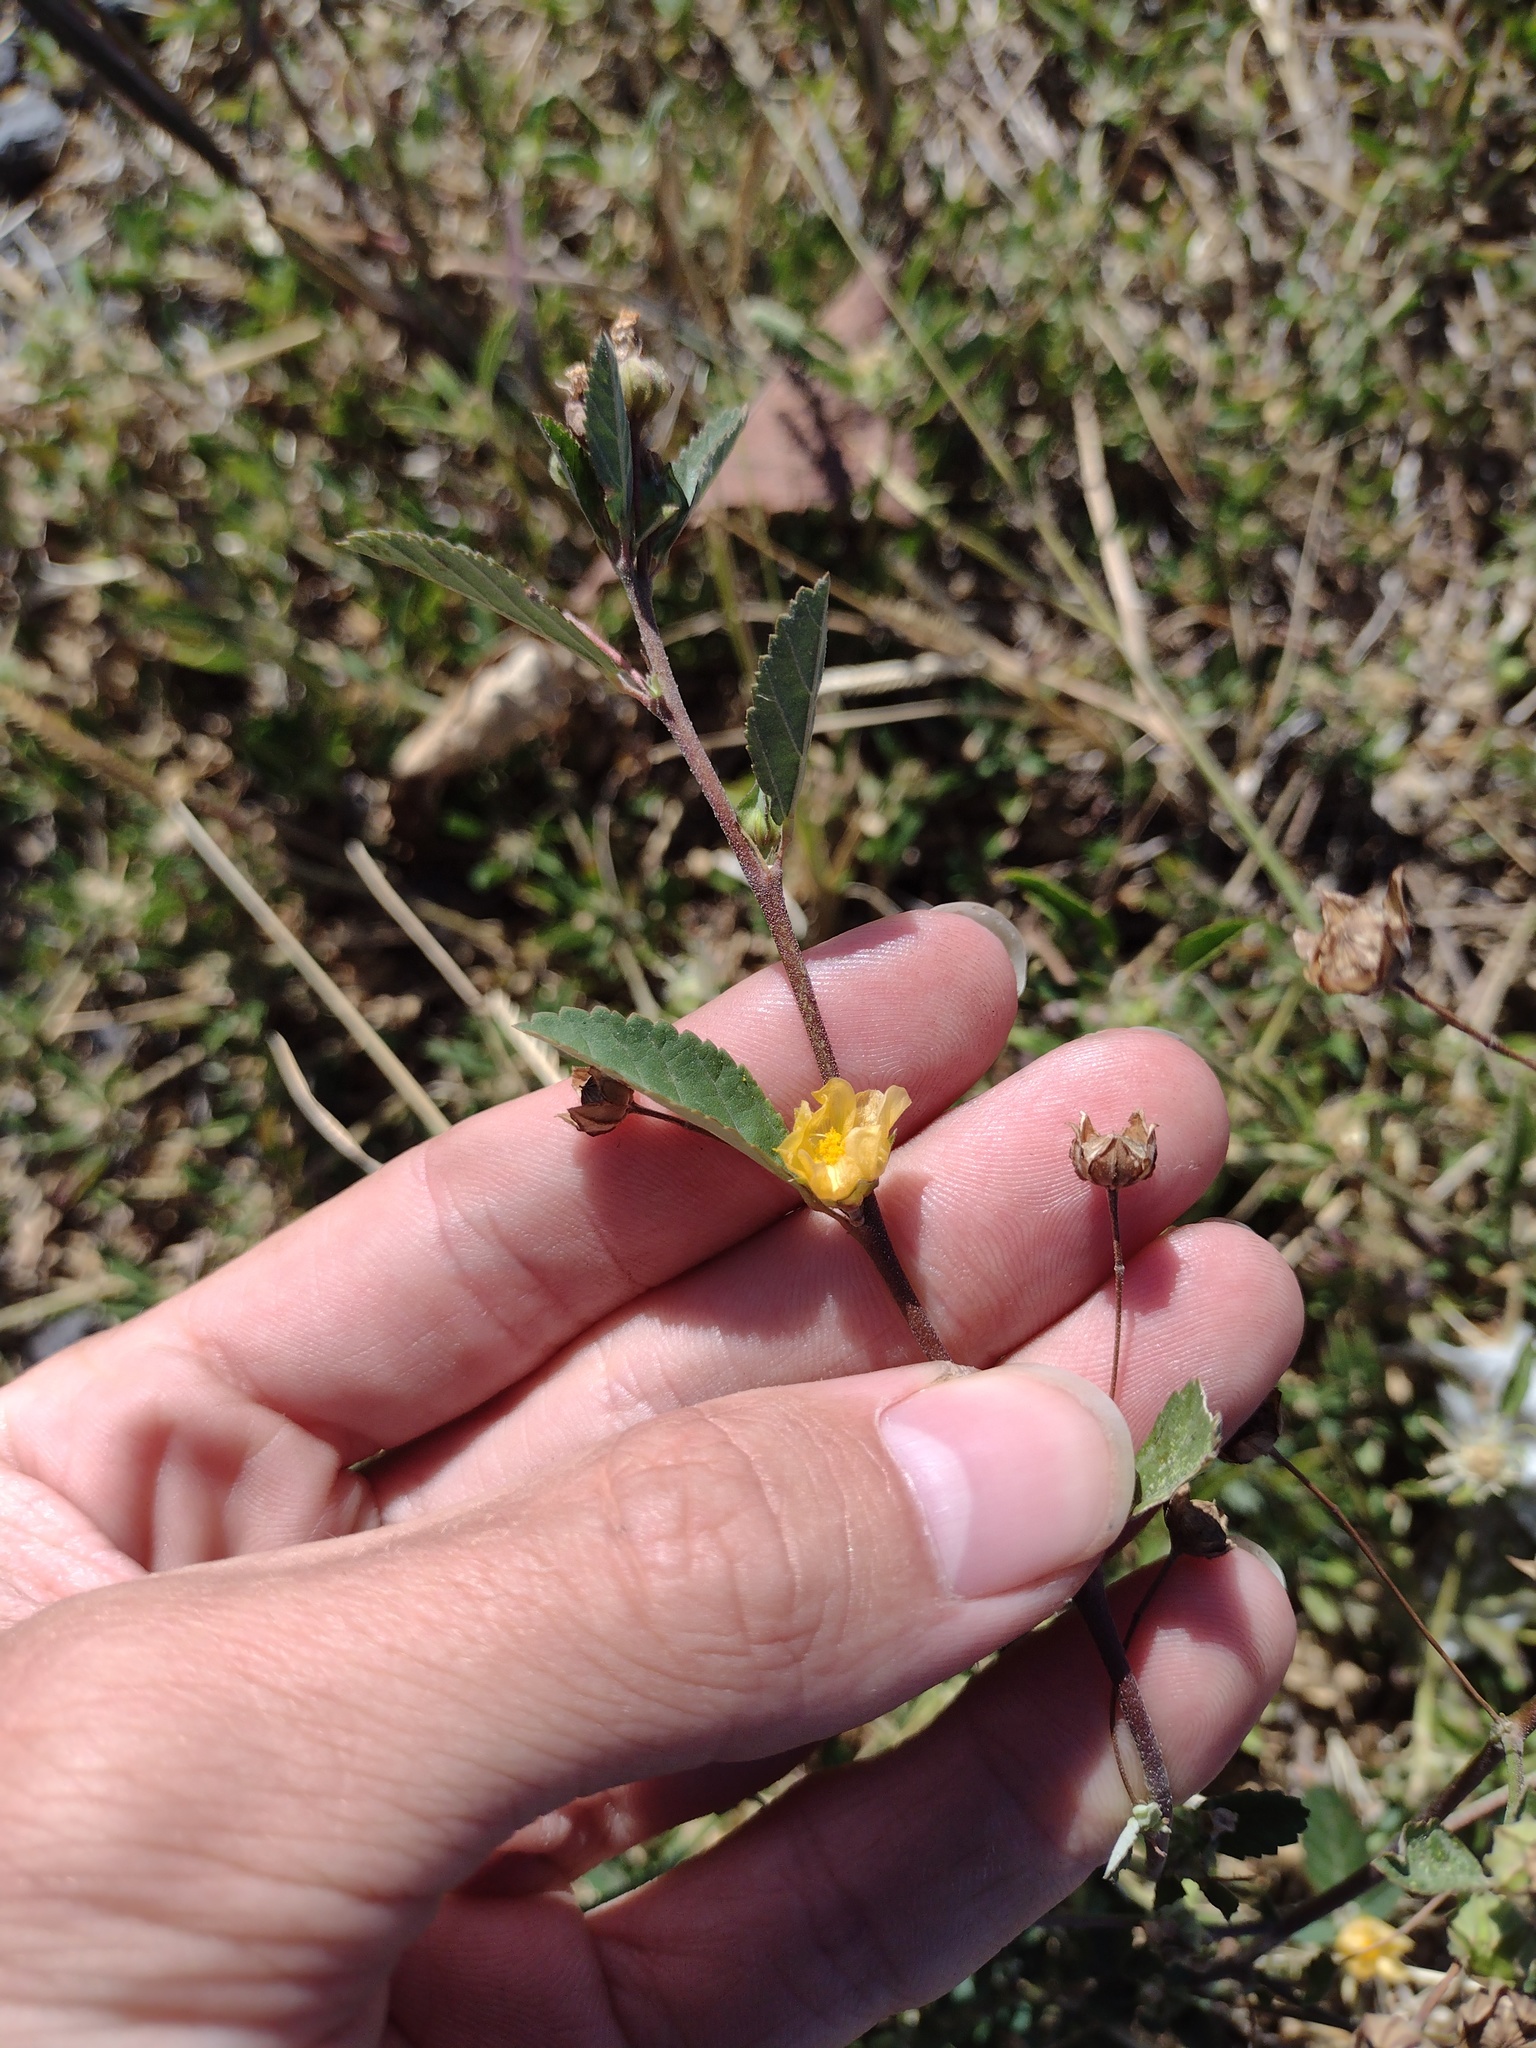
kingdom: Plantae
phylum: Tracheophyta
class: Magnoliopsida
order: Malvales
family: Malvaceae
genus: Sida
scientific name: Sida rhombifolia
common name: Queensland-hemp
